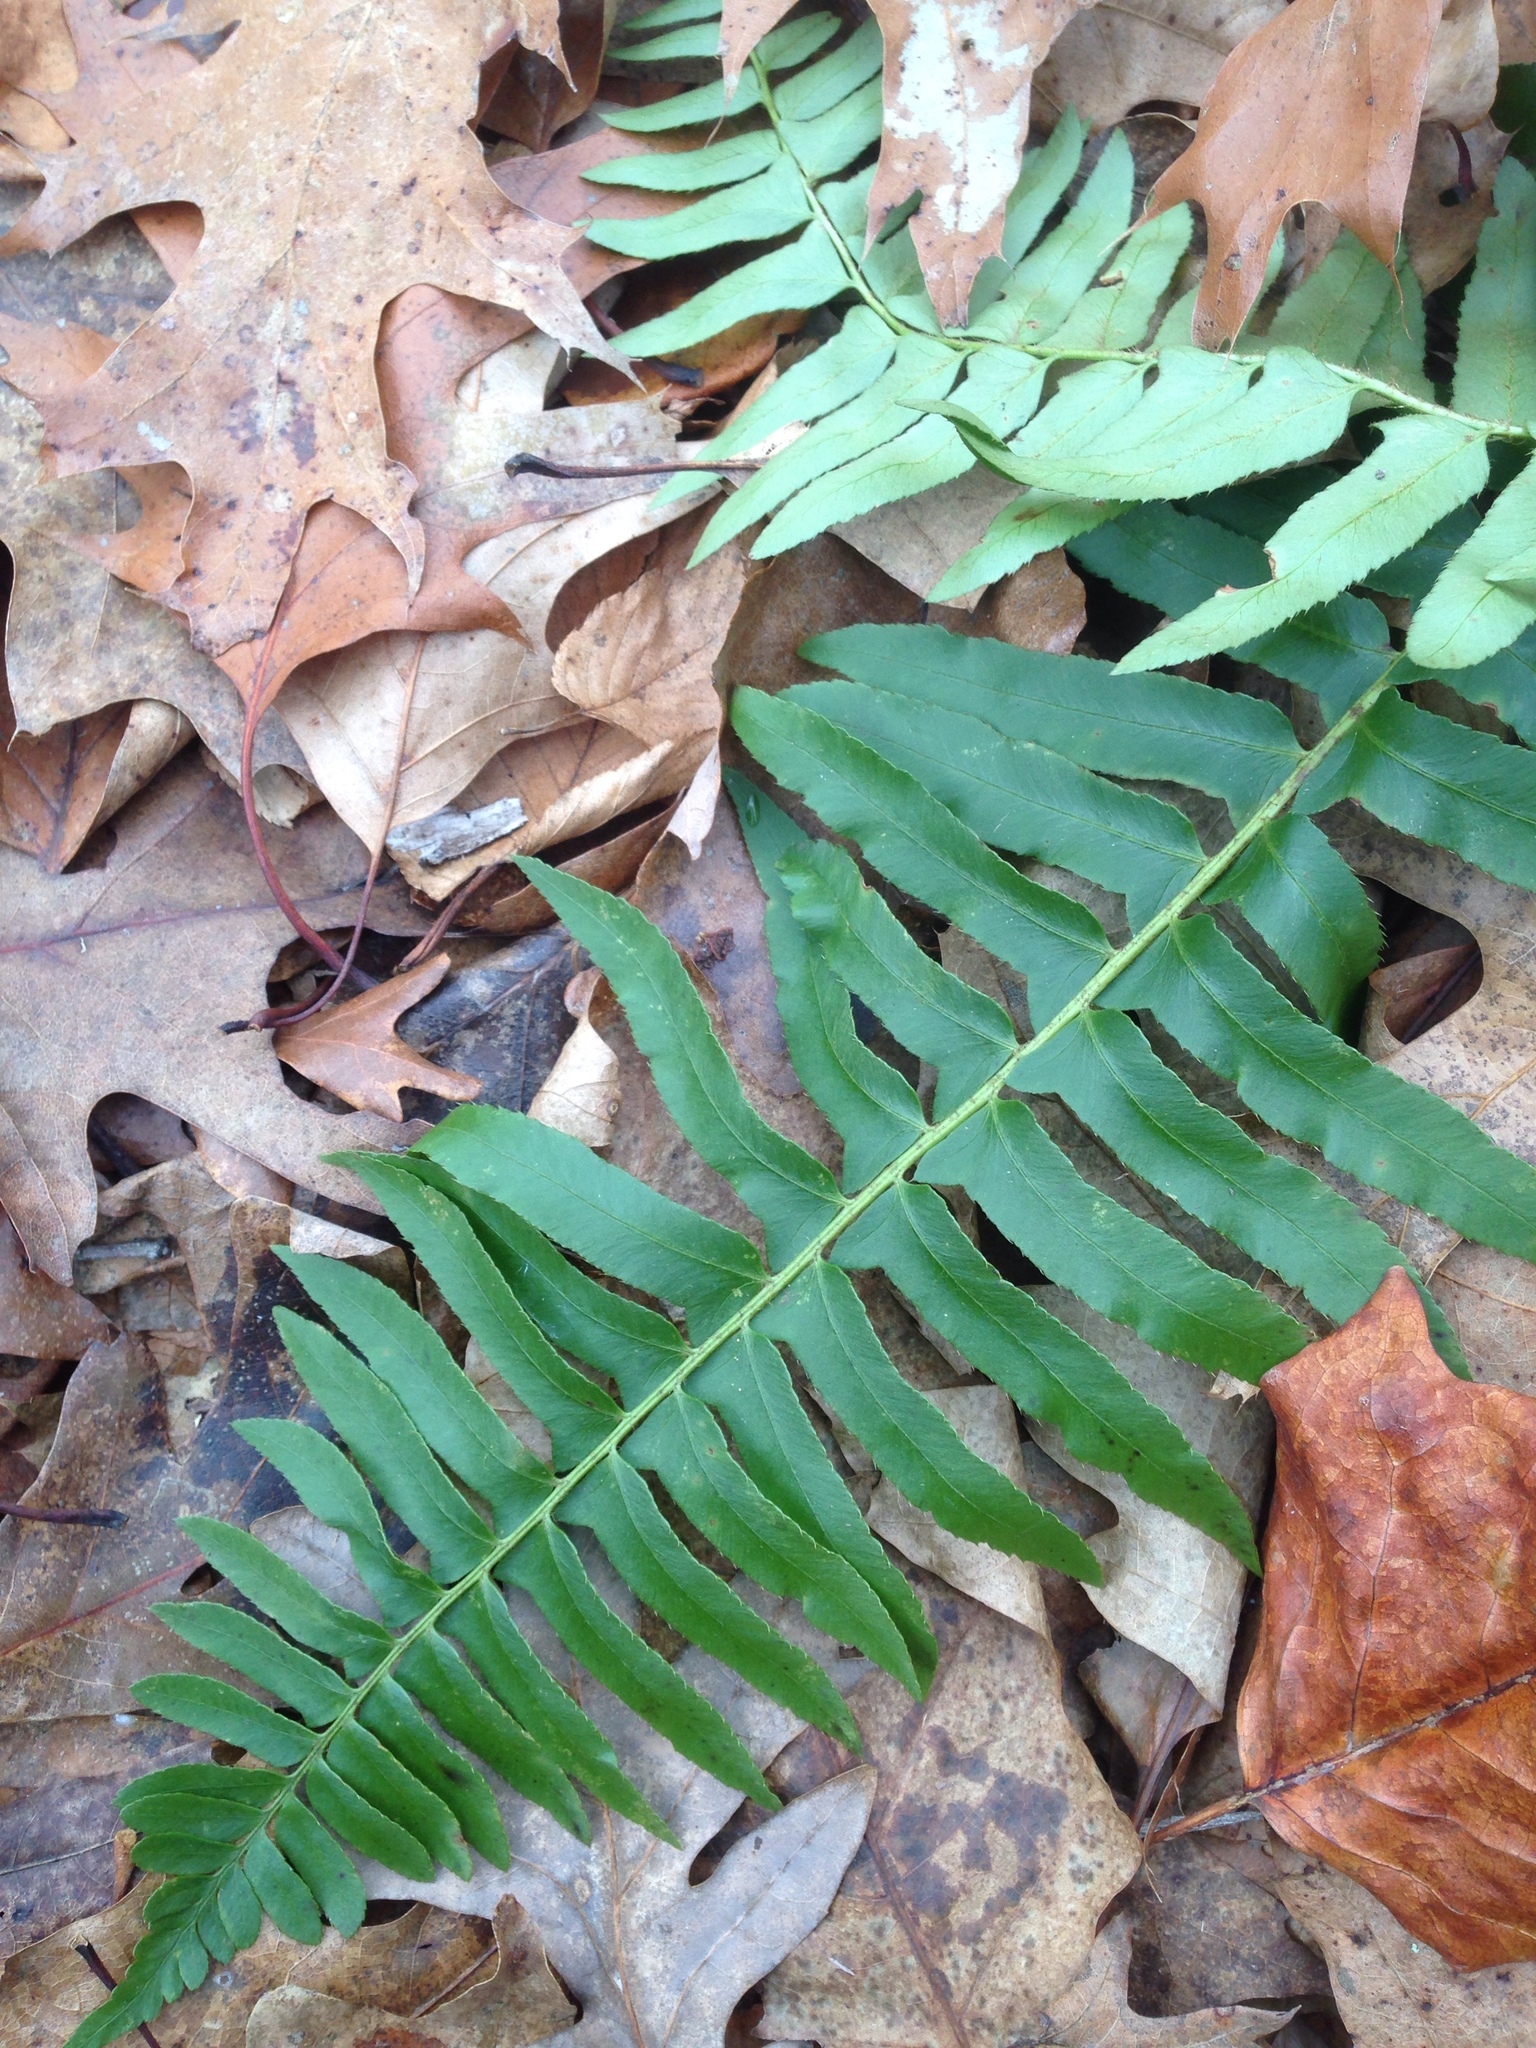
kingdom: Plantae
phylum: Tracheophyta
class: Polypodiopsida
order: Polypodiales
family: Dryopteridaceae
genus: Polystichum
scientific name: Polystichum acrostichoides
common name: Christmas fern
